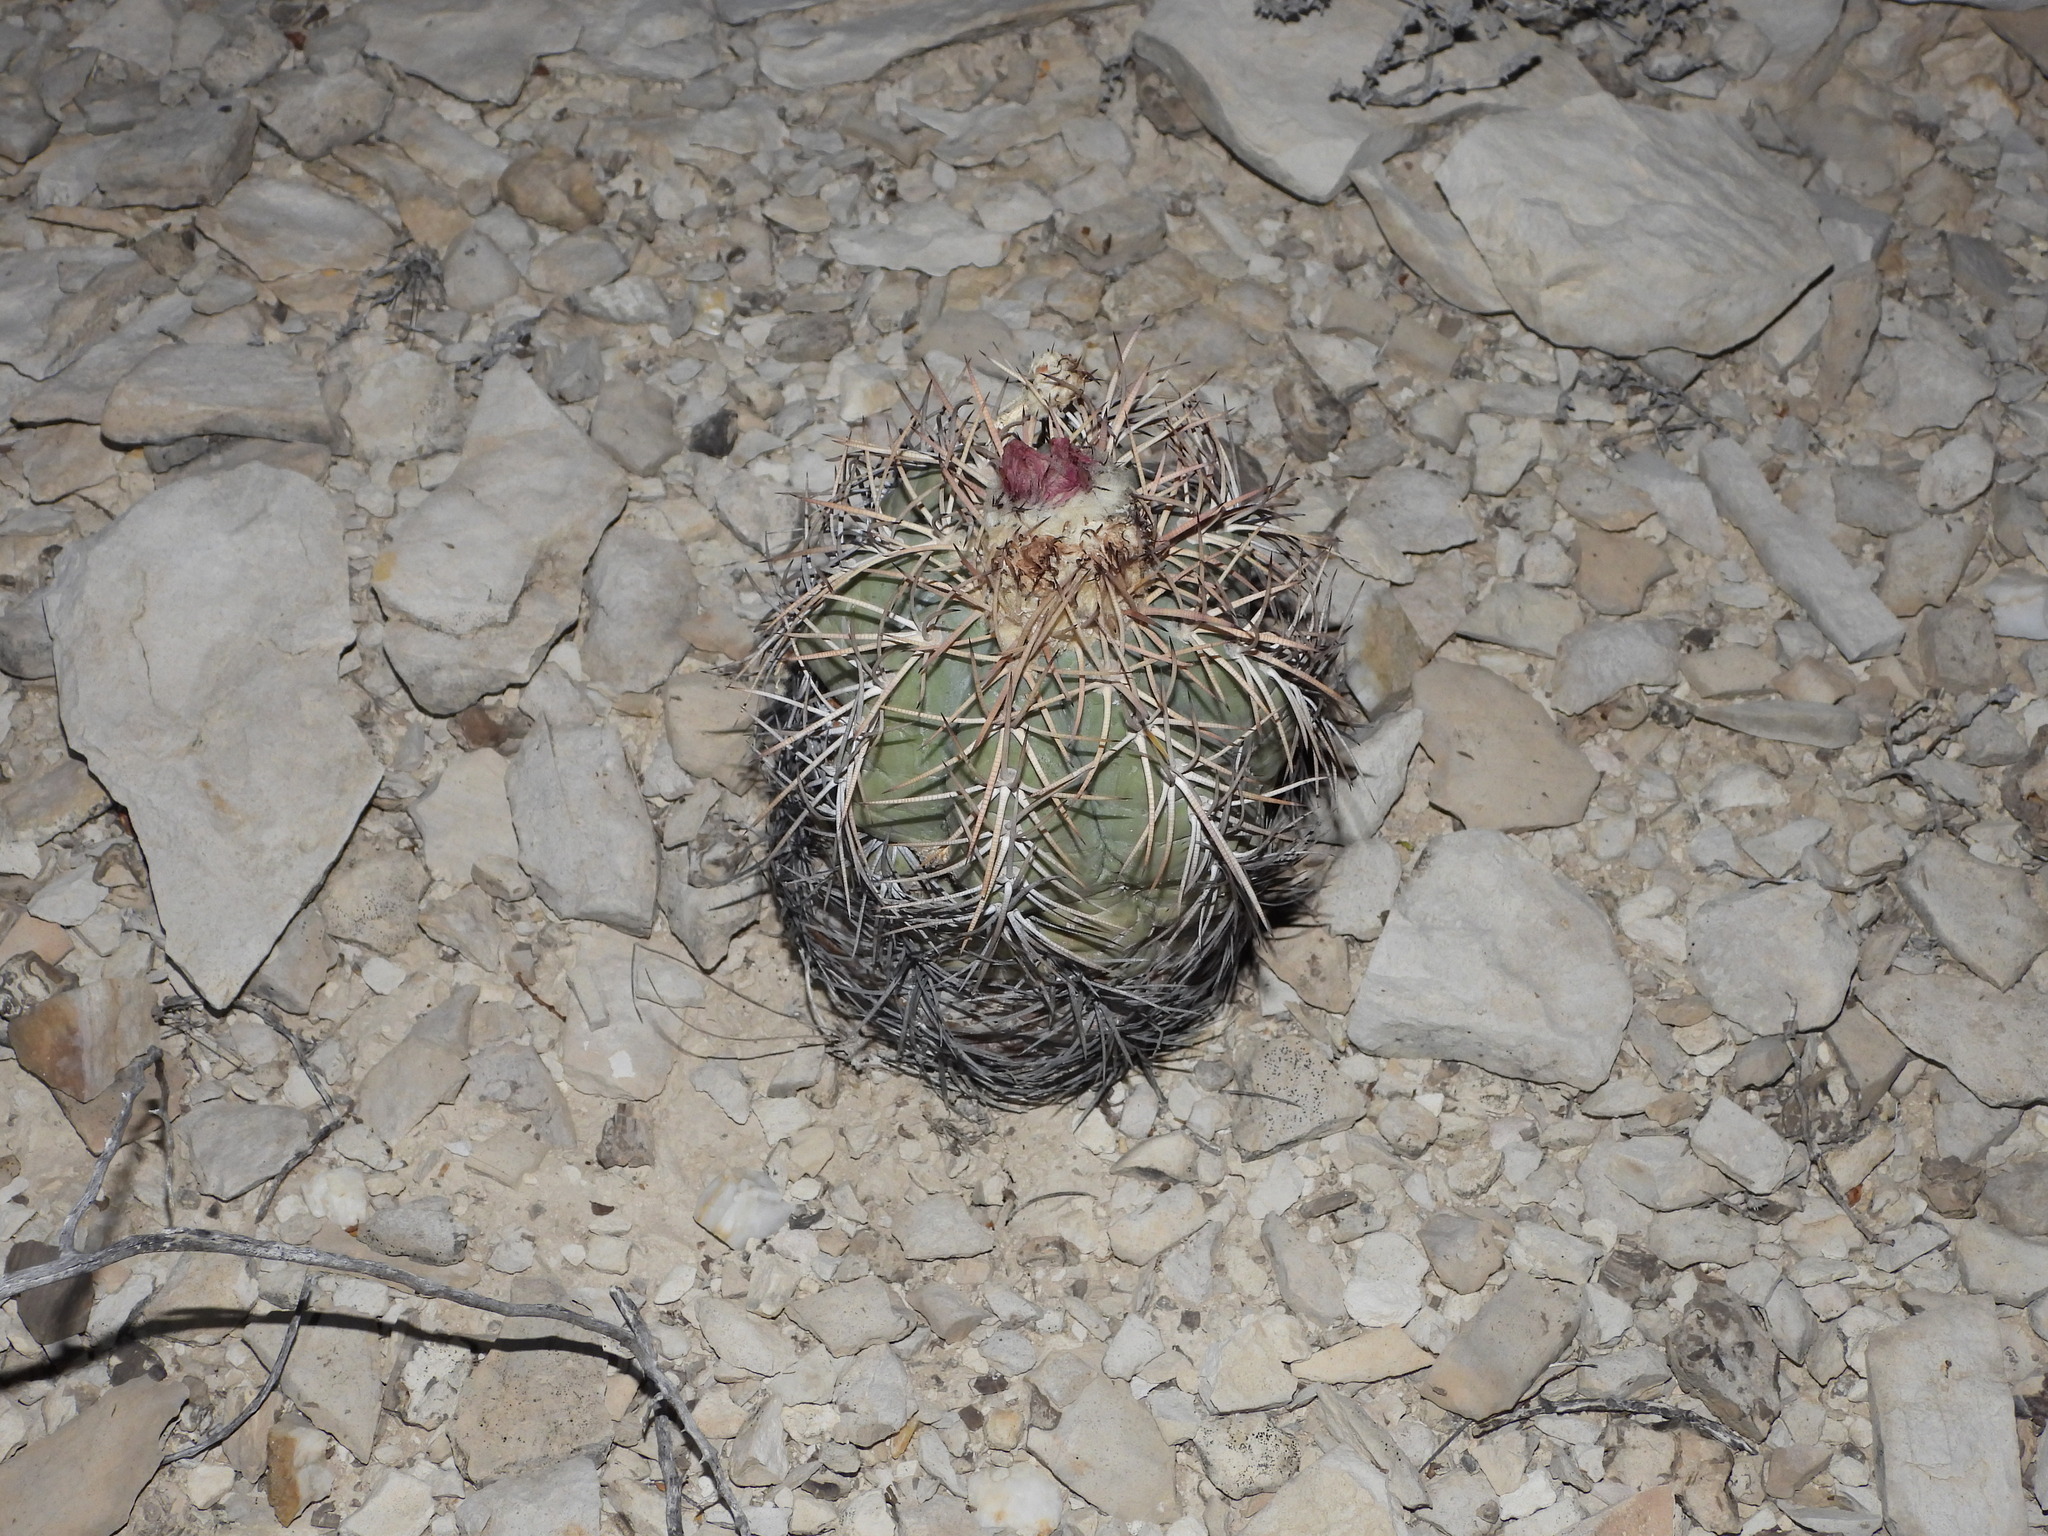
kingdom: Plantae
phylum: Tracheophyta
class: Magnoliopsida
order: Caryophyllales
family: Cactaceae
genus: Echinocactus
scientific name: Echinocactus horizonthalonius
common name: Devilshead
